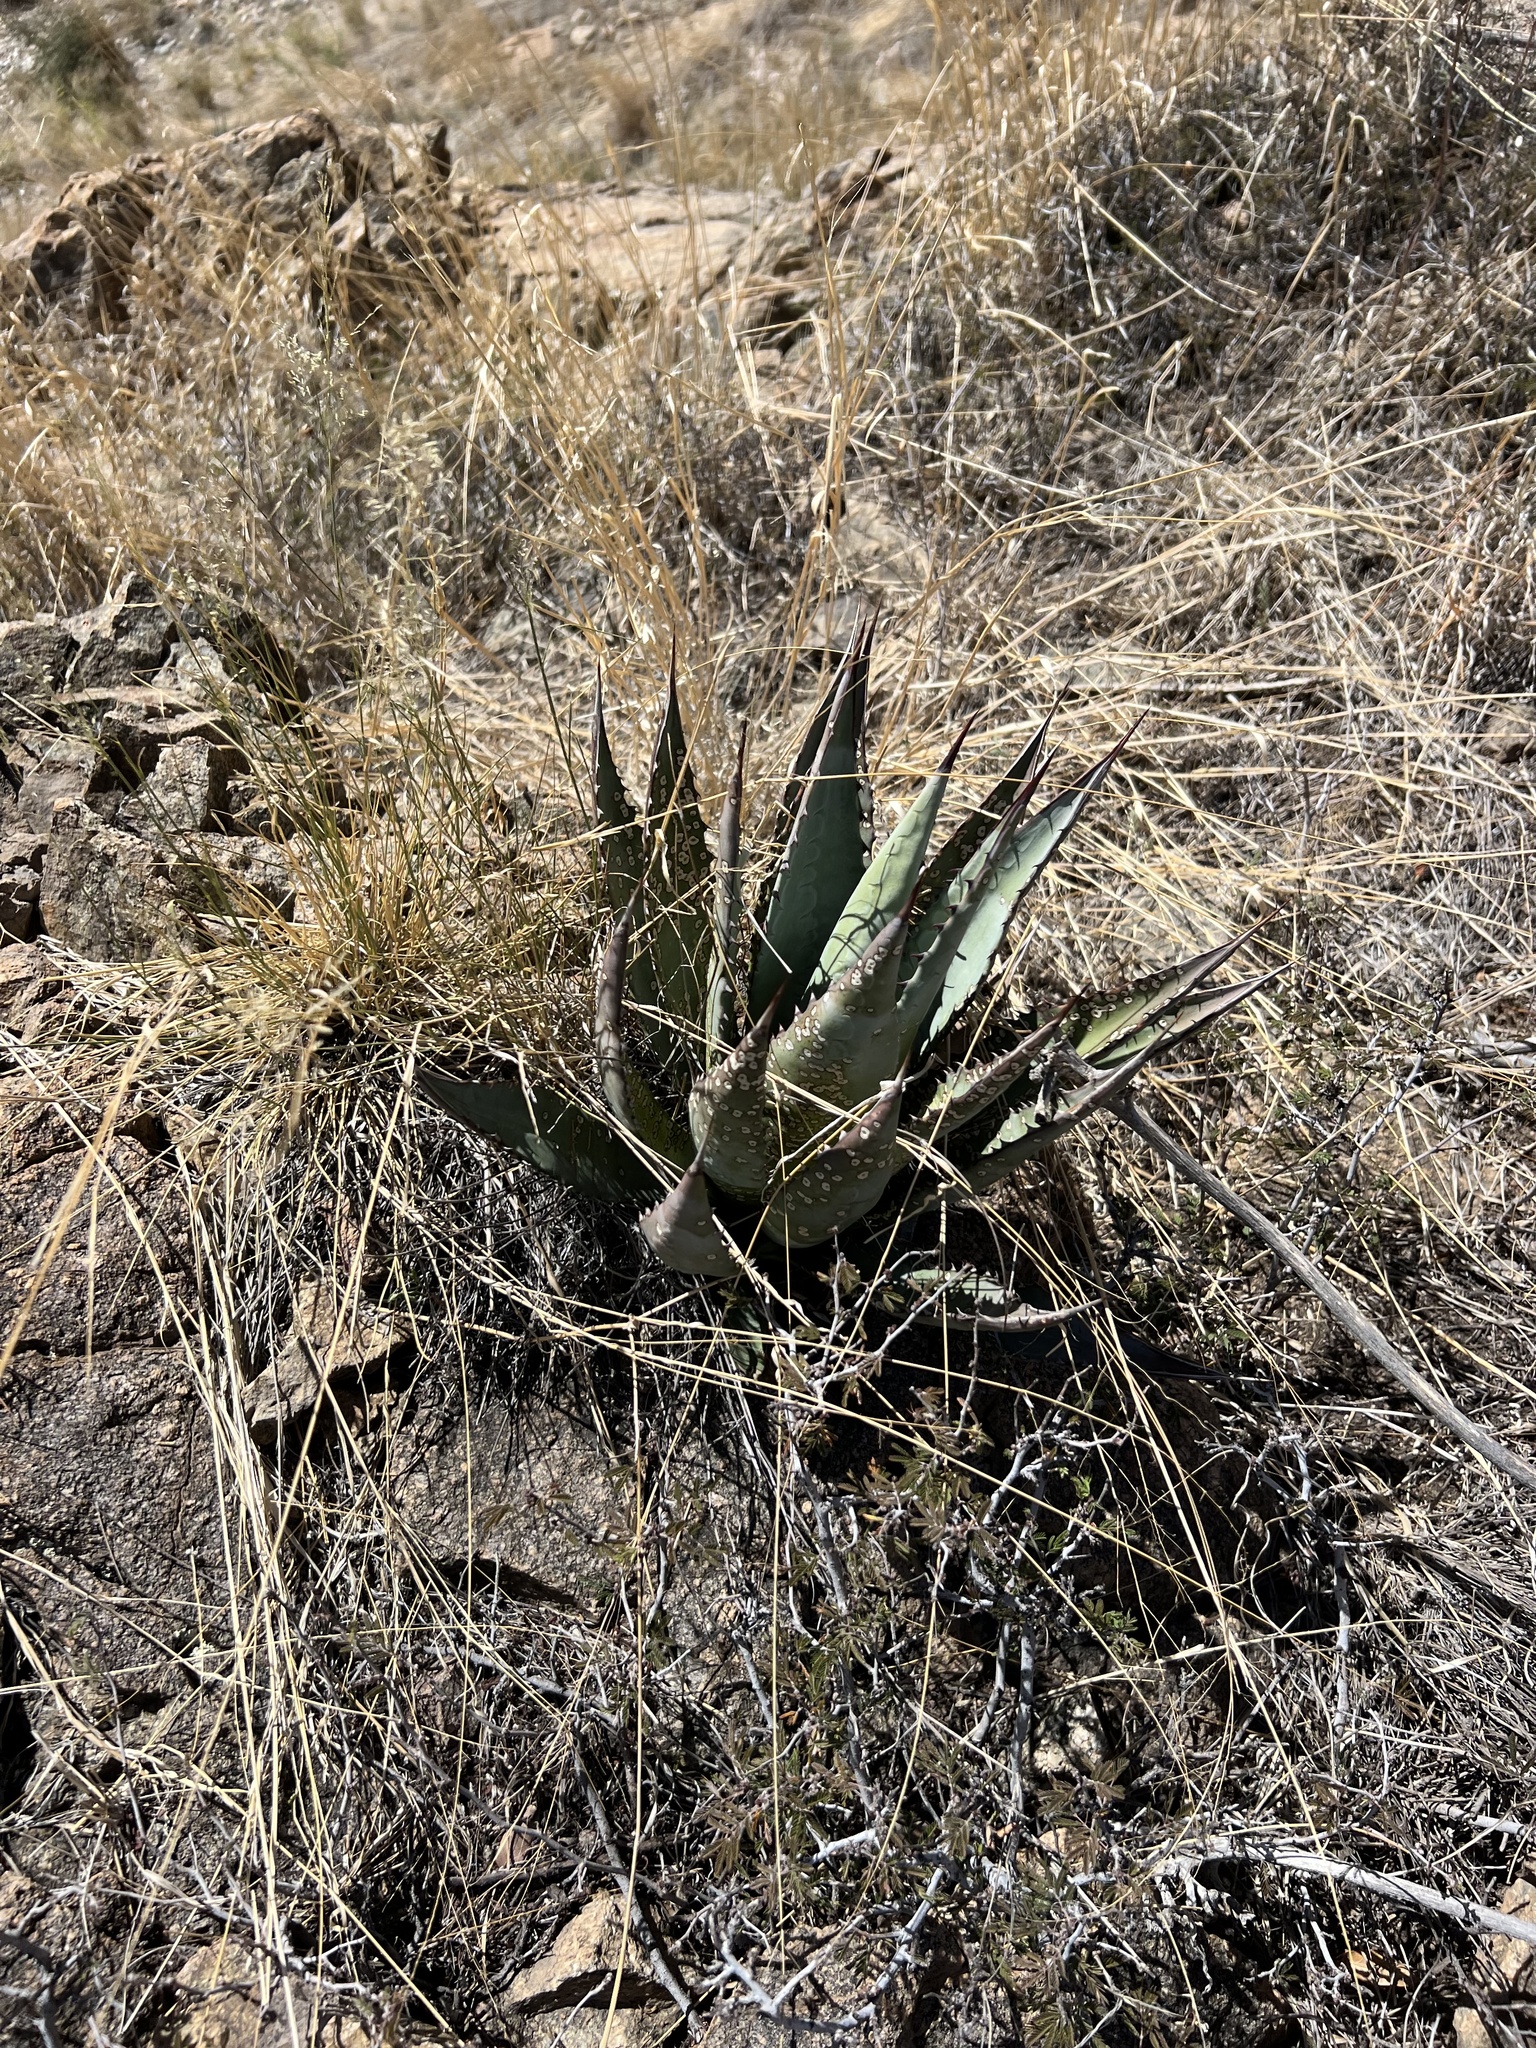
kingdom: Plantae
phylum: Tracheophyta
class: Liliopsida
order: Asparagales
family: Asparagaceae
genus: Agave
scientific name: Agave palmeri
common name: Palmer agave
